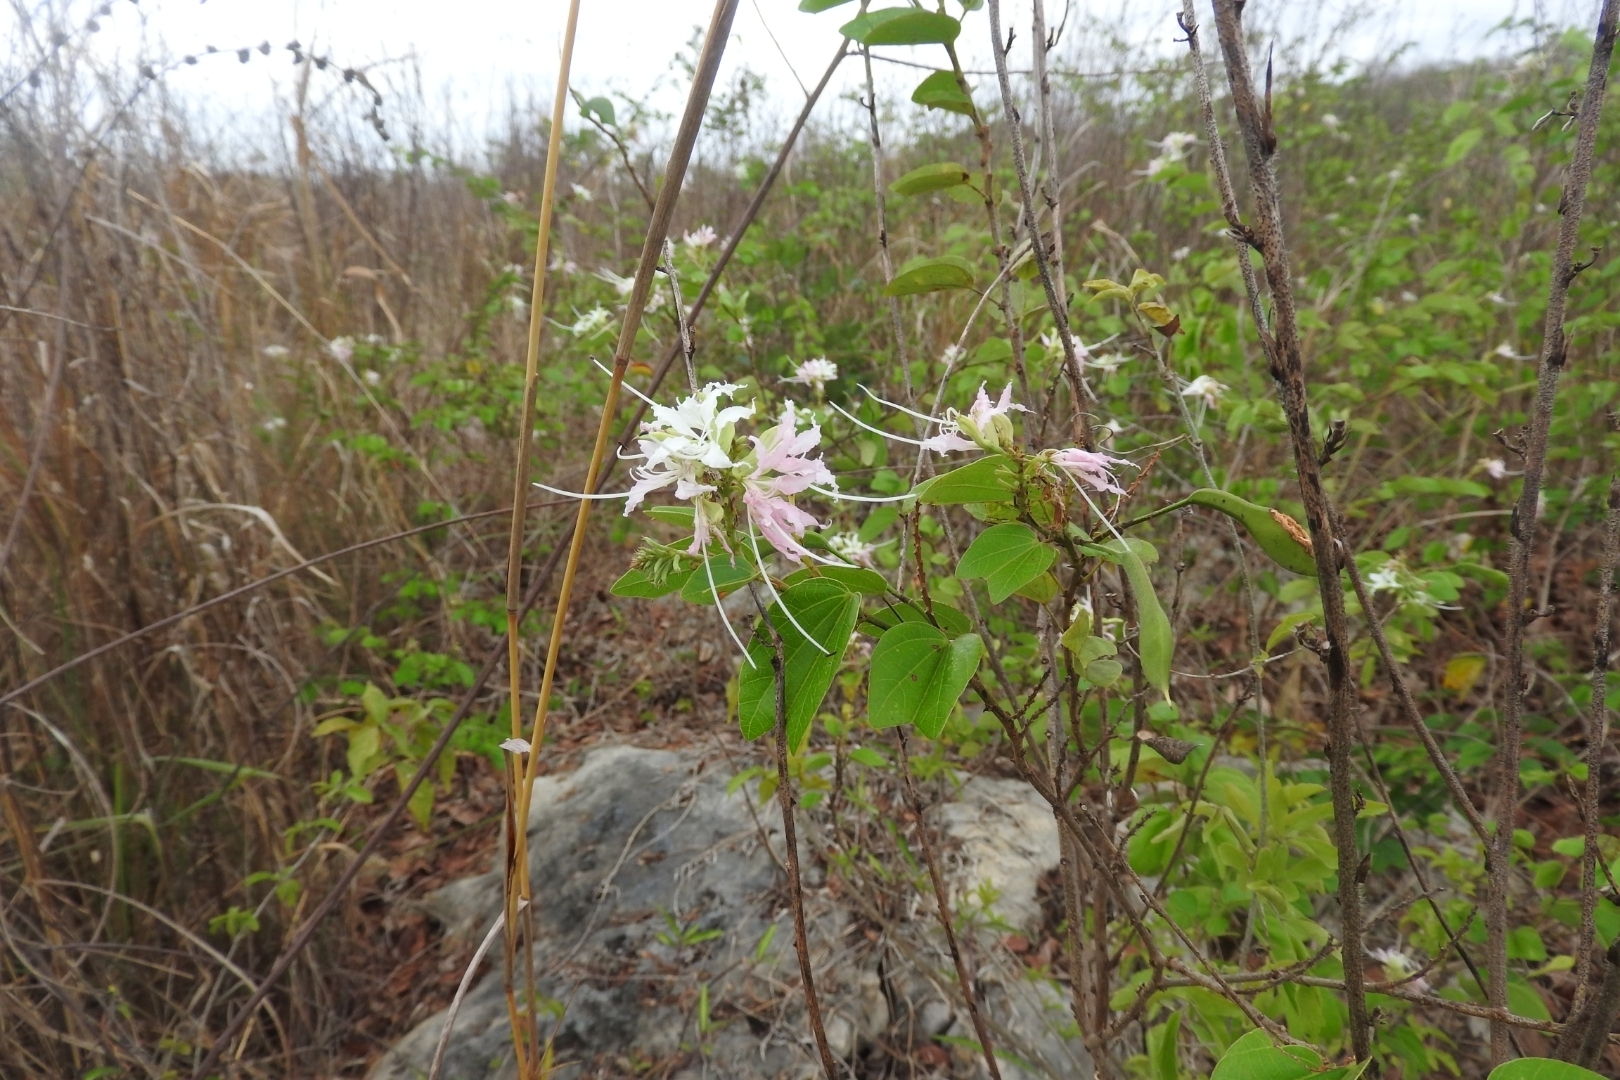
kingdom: Plantae
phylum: Tracheophyta
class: Magnoliopsida
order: Fabales
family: Fabaceae
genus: Bauhinia
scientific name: Bauhinia divaricata
